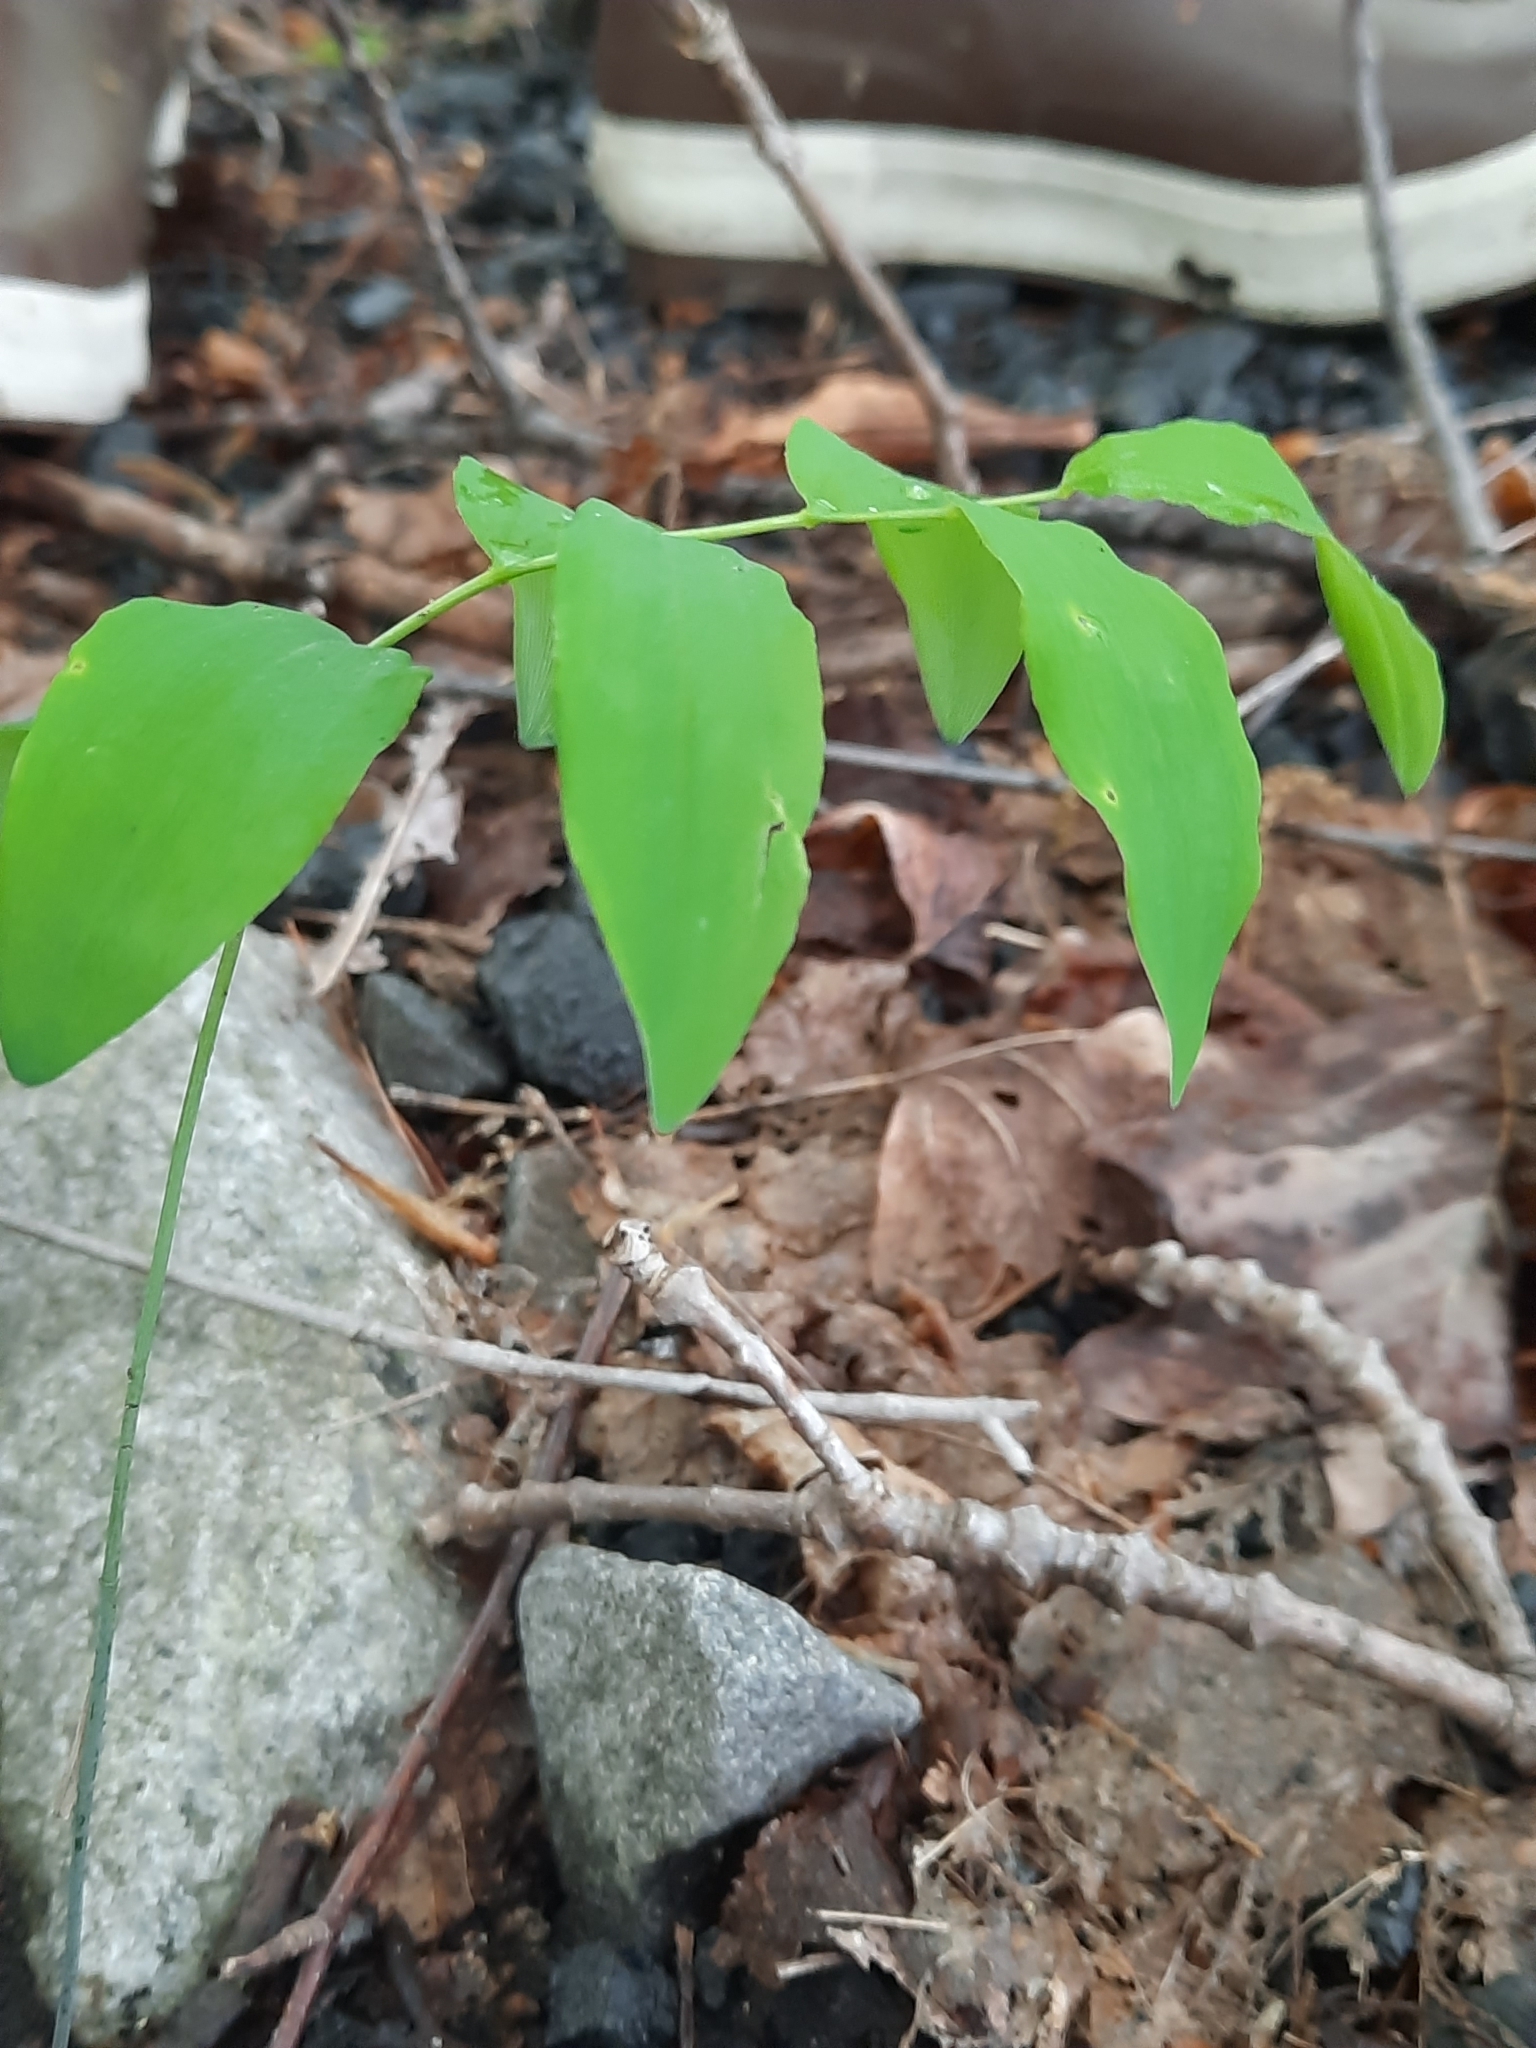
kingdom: Plantae
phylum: Tracheophyta
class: Liliopsida
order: Asparagales
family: Asparagaceae
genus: Polygonatum
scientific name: Polygonatum pubescens
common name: Downy solomon's seal
